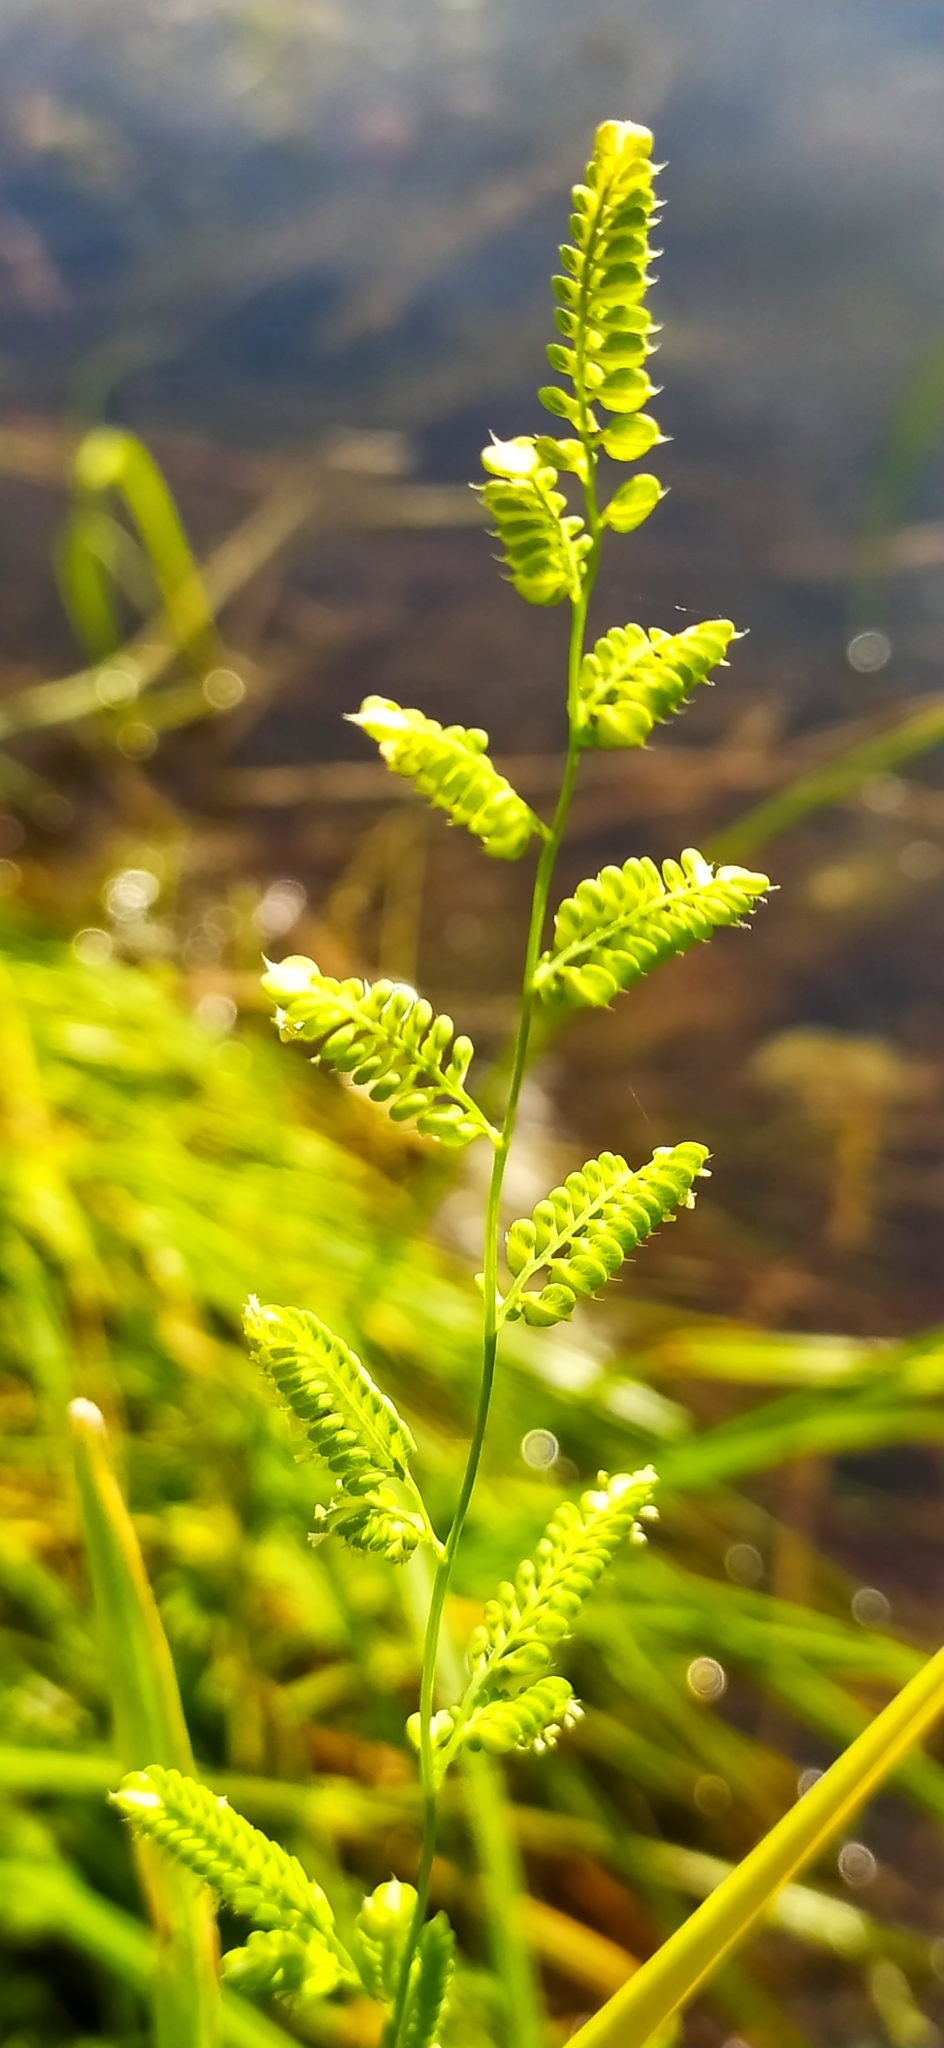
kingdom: Plantae
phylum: Tracheophyta
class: Liliopsida
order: Poales
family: Poaceae
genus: Beckmannia
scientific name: Beckmannia syzigachne
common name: American slough-grass
